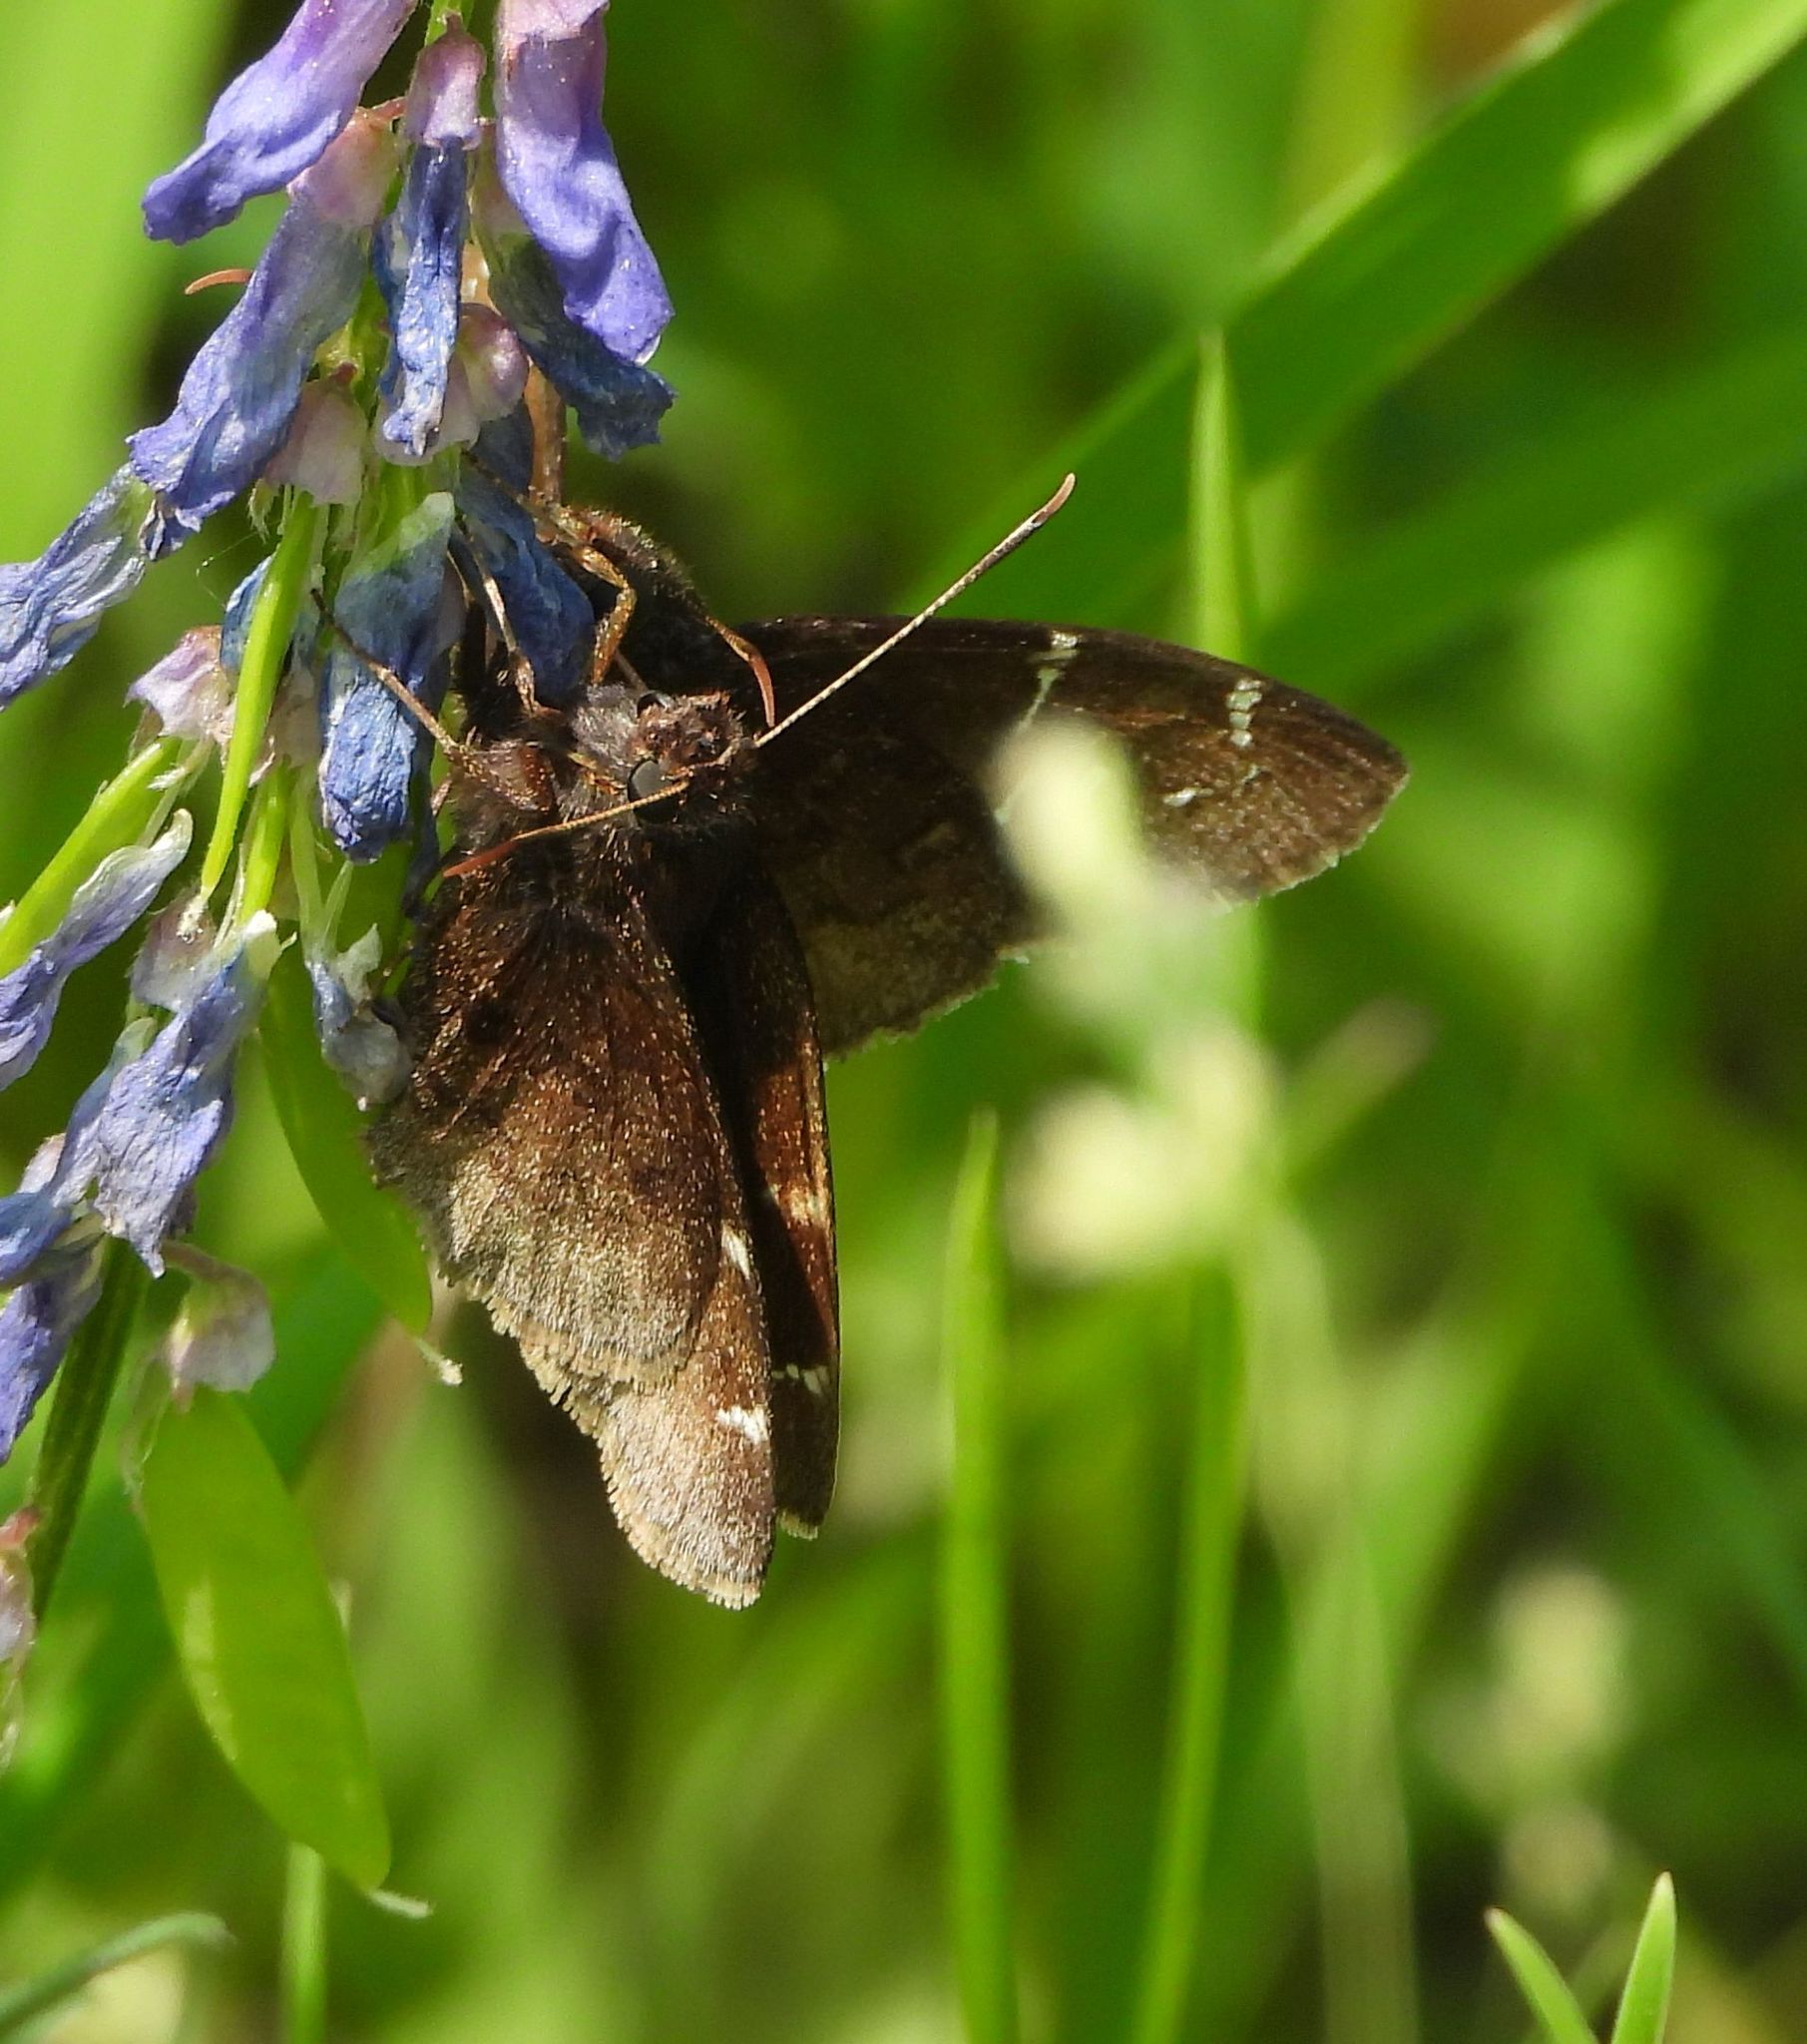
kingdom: Animalia
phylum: Arthropoda
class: Insecta
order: Lepidoptera
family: Hesperiidae
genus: Thorybes
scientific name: Thorybes pylades
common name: Northern cloudywing
